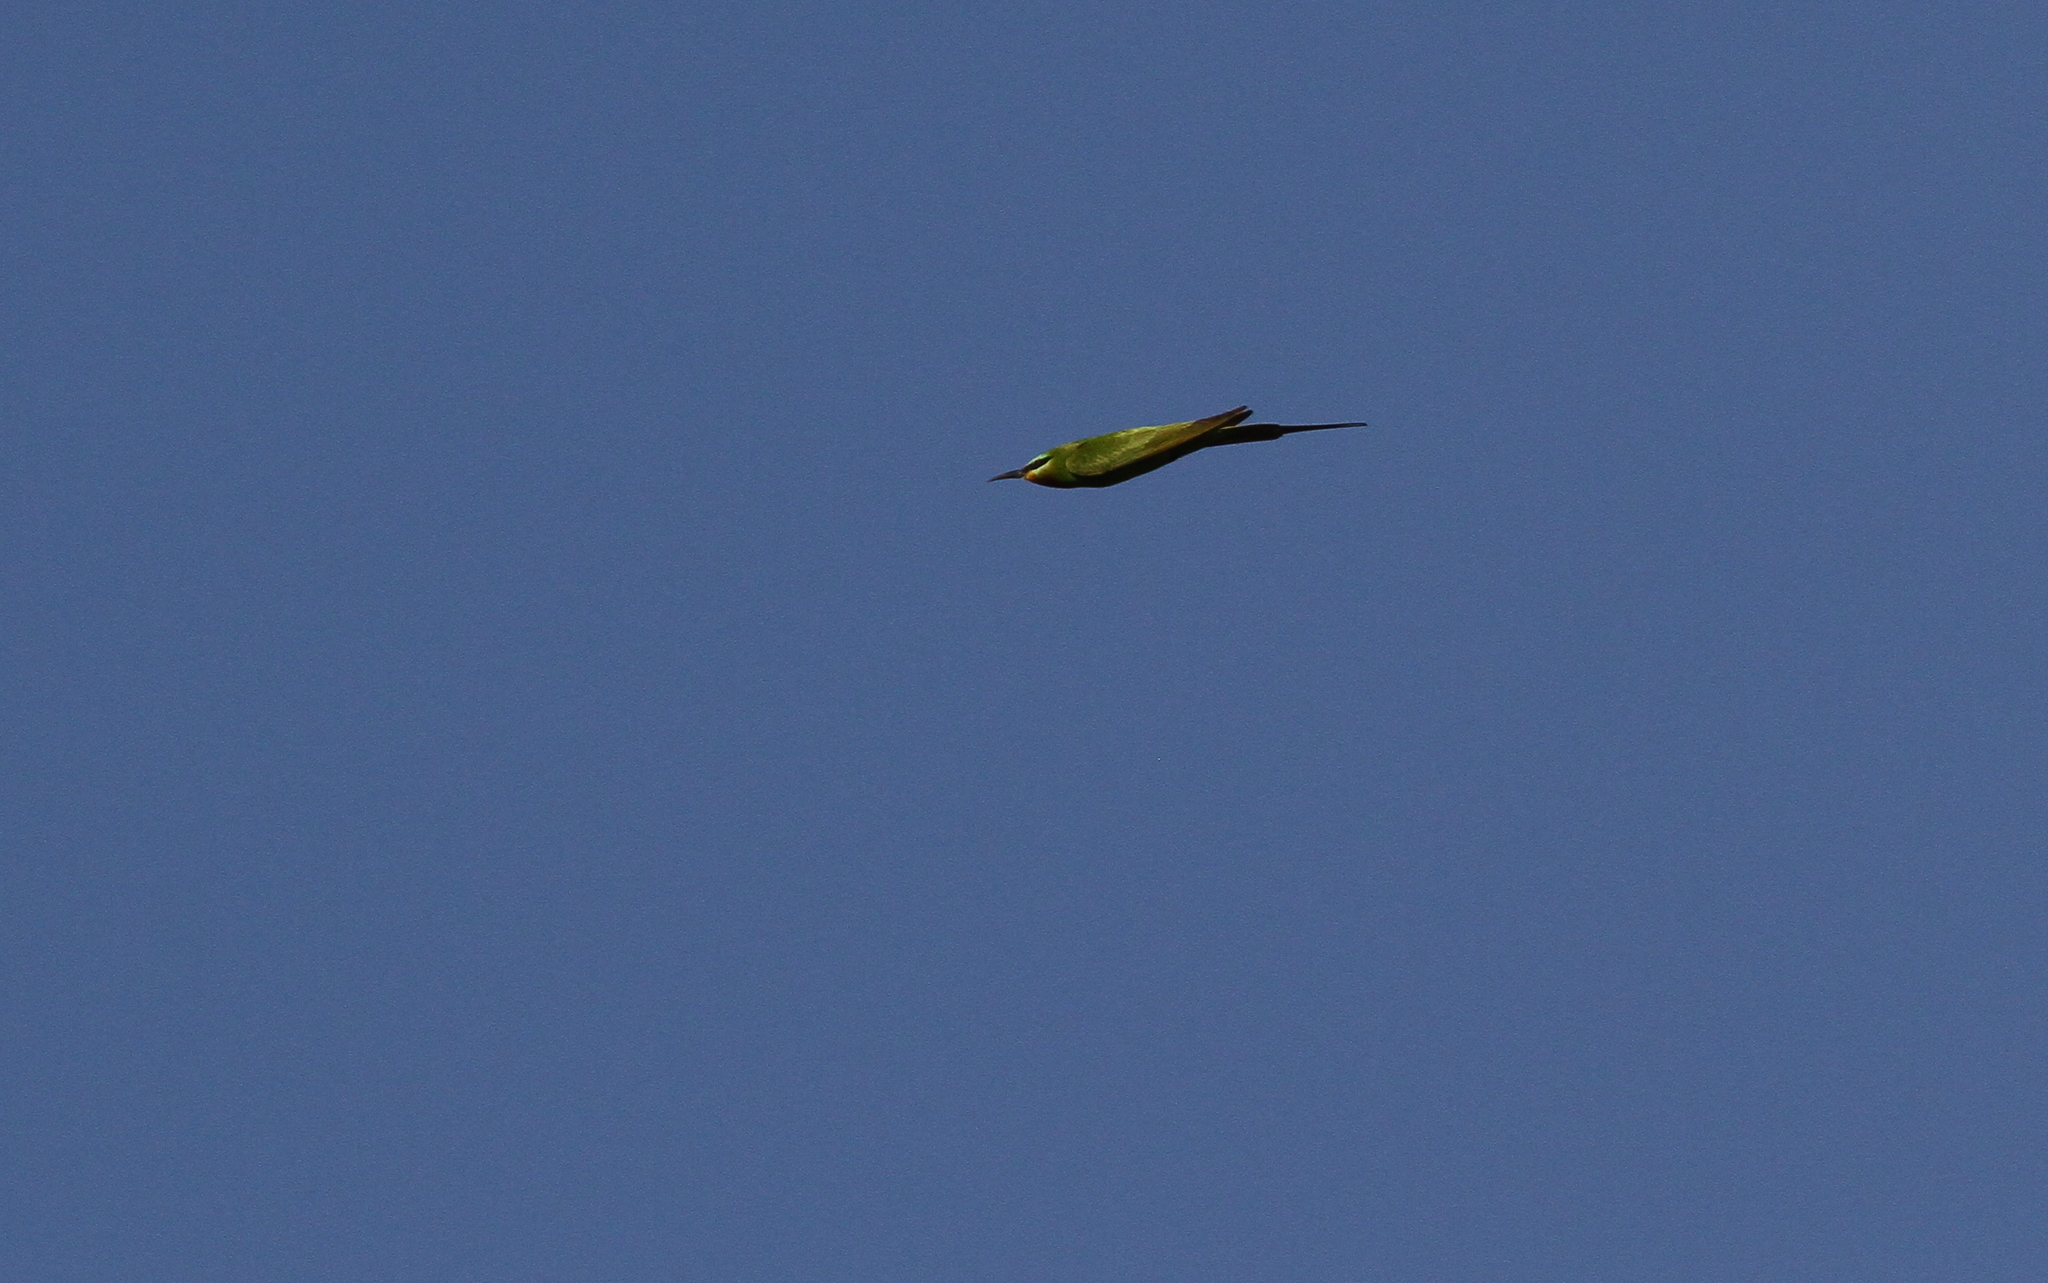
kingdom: Animalia
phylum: Chordata
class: Aves
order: Coraciiformes
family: Meropidae
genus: Merops
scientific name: Merops persicus
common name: Blue-cheeked bee-eater
